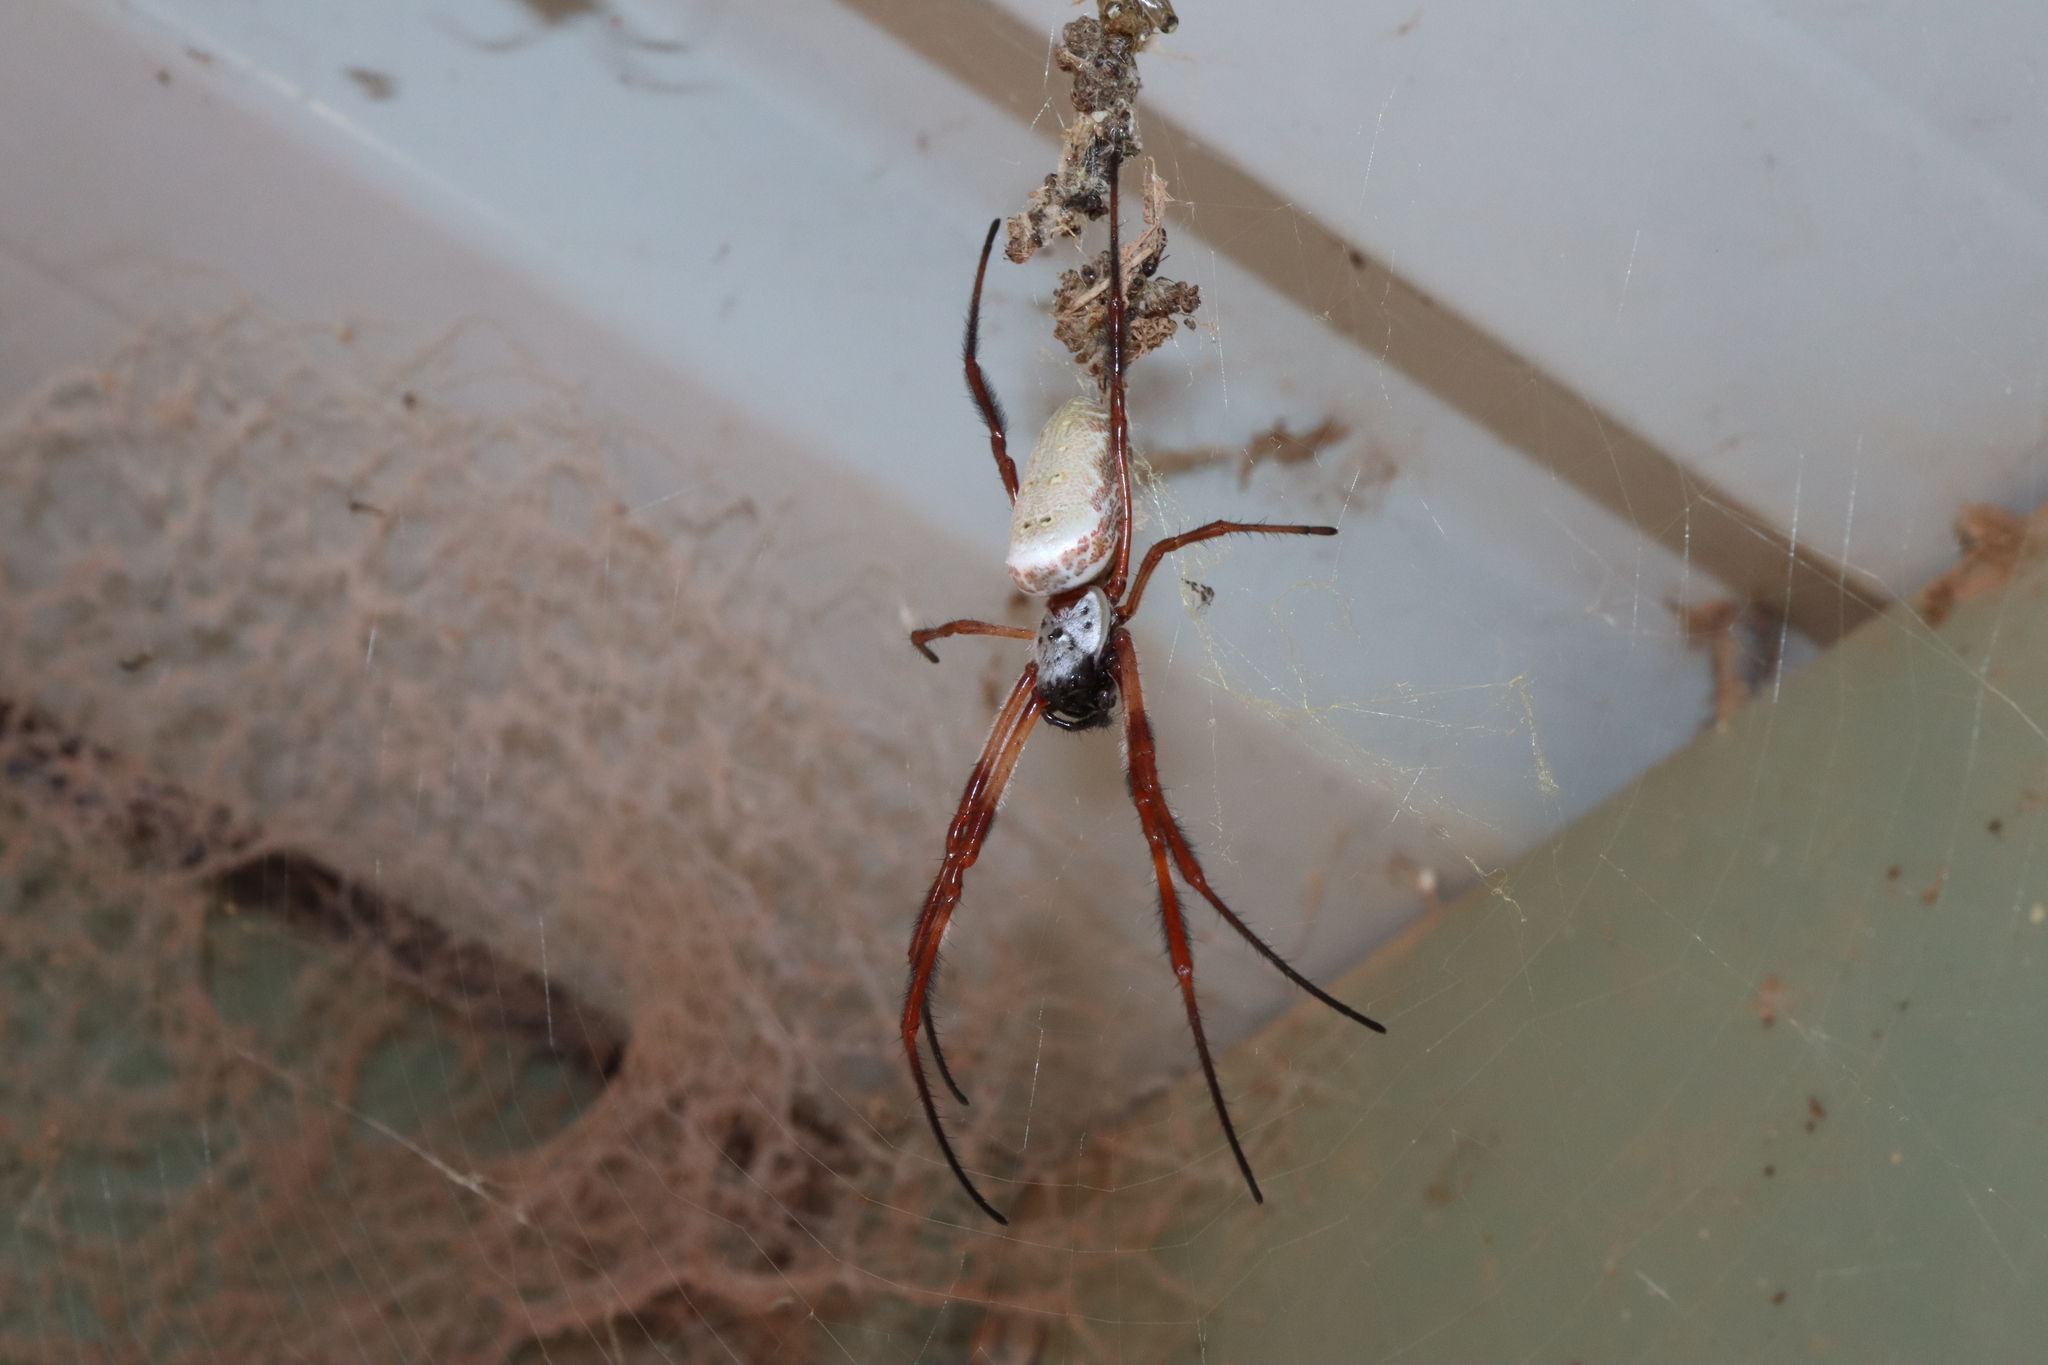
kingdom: Animalia
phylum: Arthropoda
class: Arachnida
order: Araneae
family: Araneidae
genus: Trichonephila
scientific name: Trichonephila edulis
